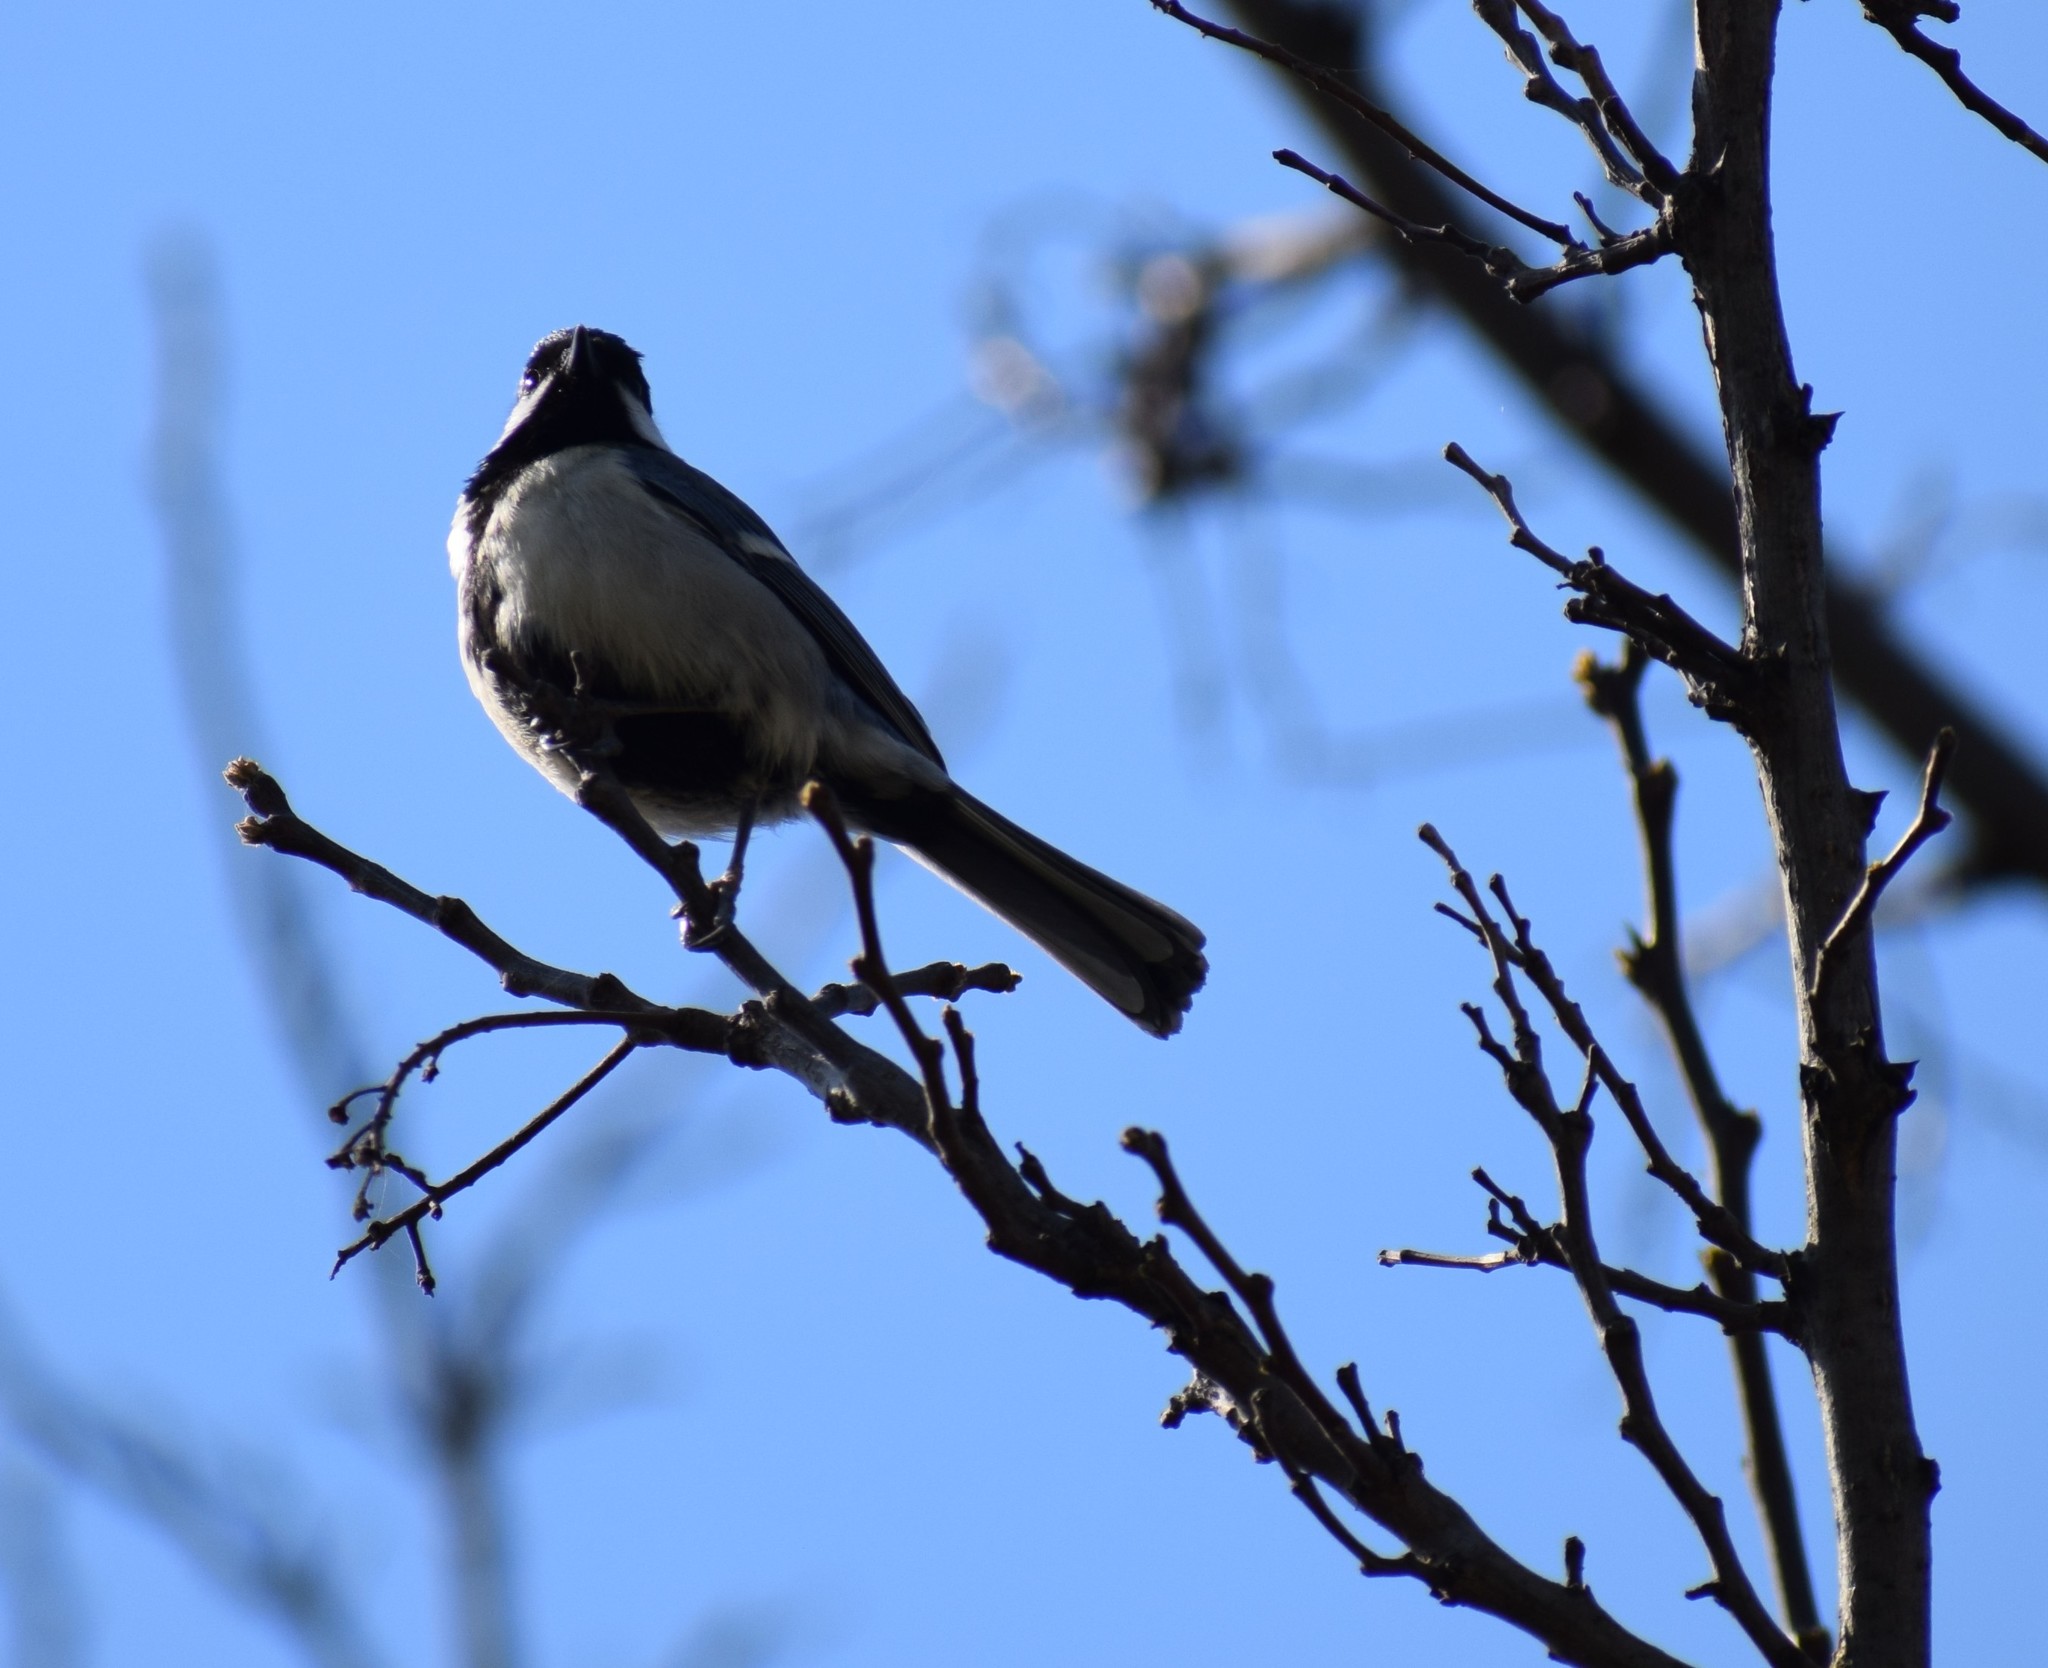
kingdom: Animalia
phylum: Chordata
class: Aves
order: Passeriformes
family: Paridae
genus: Parus
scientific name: Parus major
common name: Great tit
